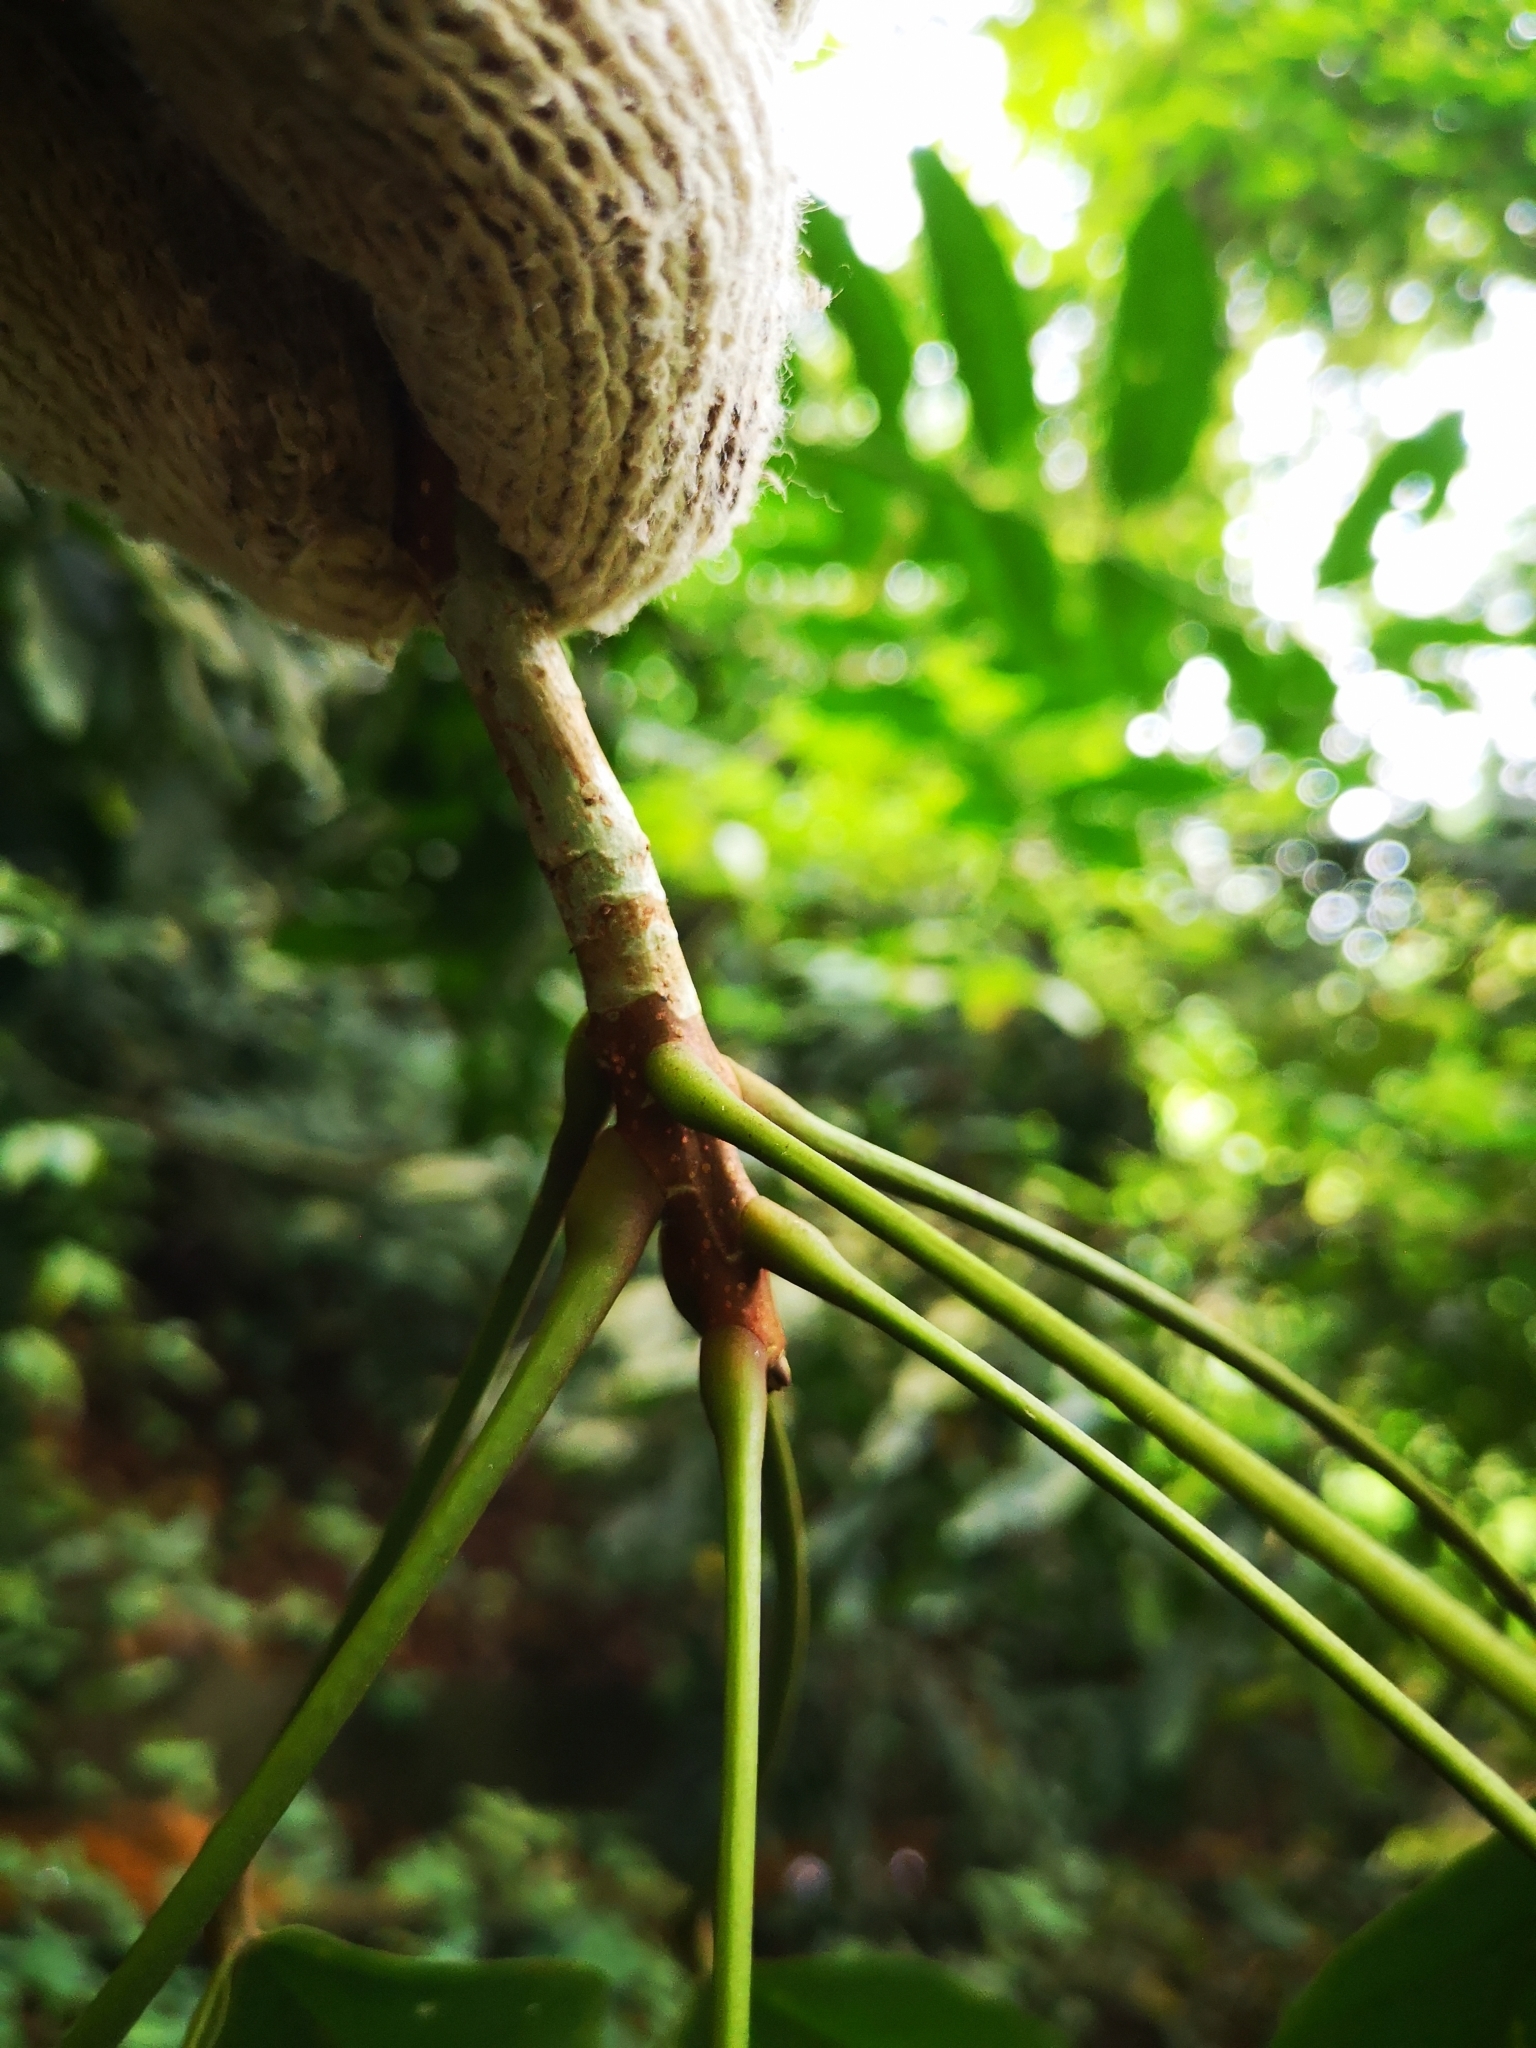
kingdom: Plantae
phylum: Tracheophyta
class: Magnoliopsida
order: Malvales
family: Malvaceae
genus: Sterculia
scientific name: Sterculia parviflora
